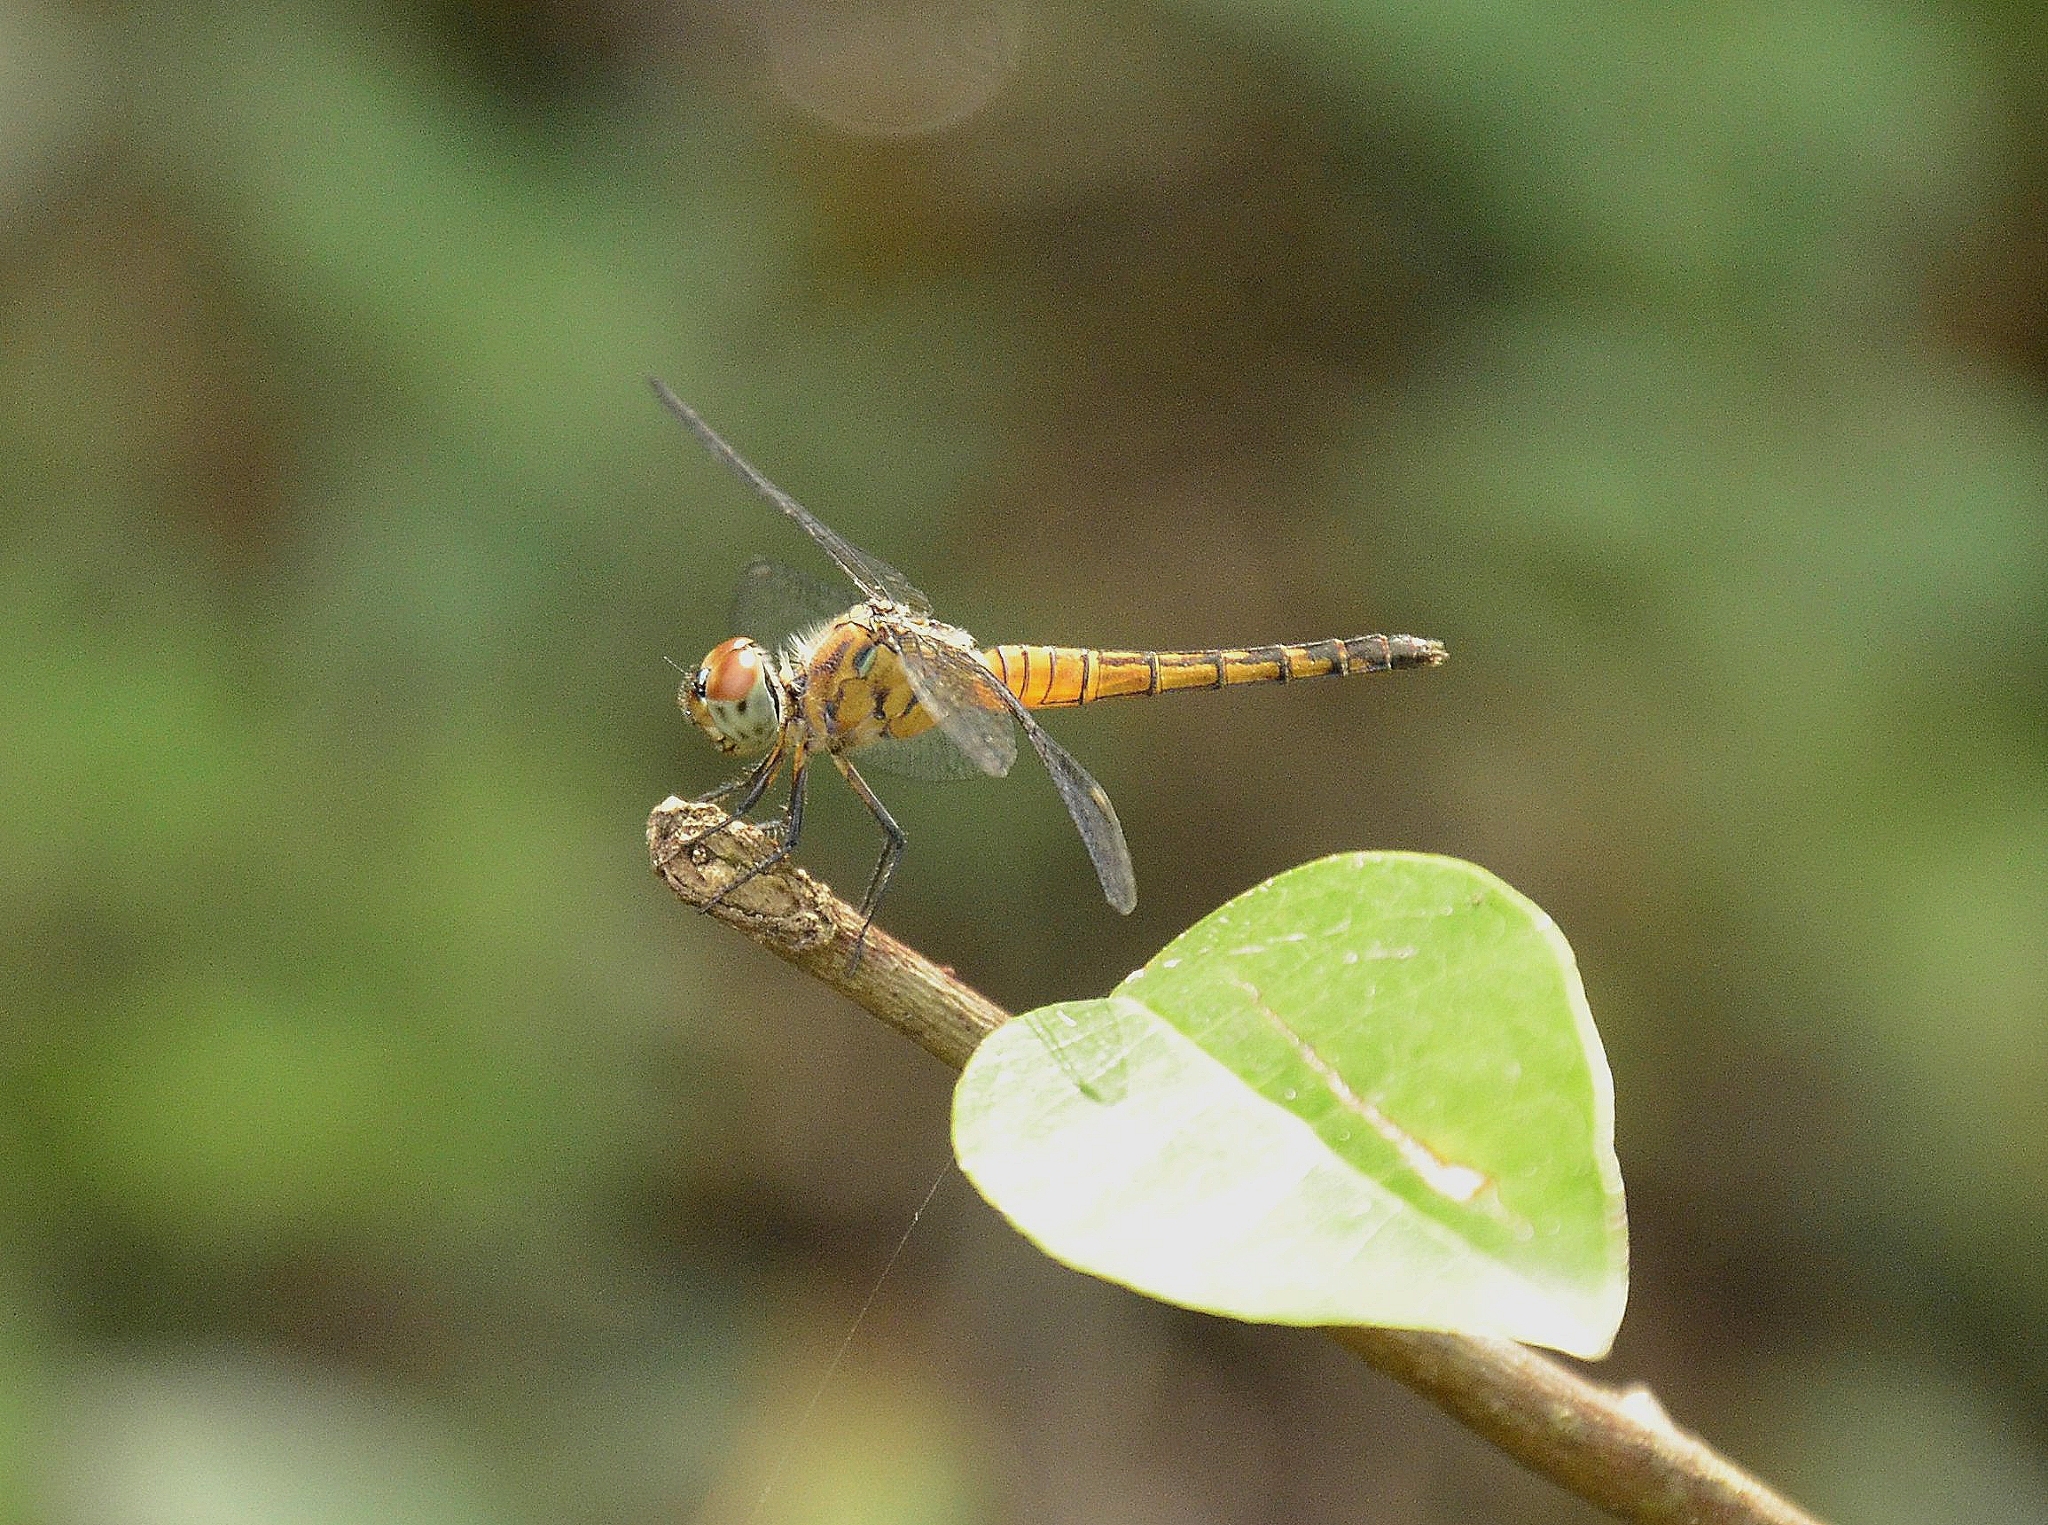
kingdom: Animalia
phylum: Arthropoda
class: Insecta
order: Odonata
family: Libellulidae
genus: Brachydiplax
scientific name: Brachydiplax chalybea
